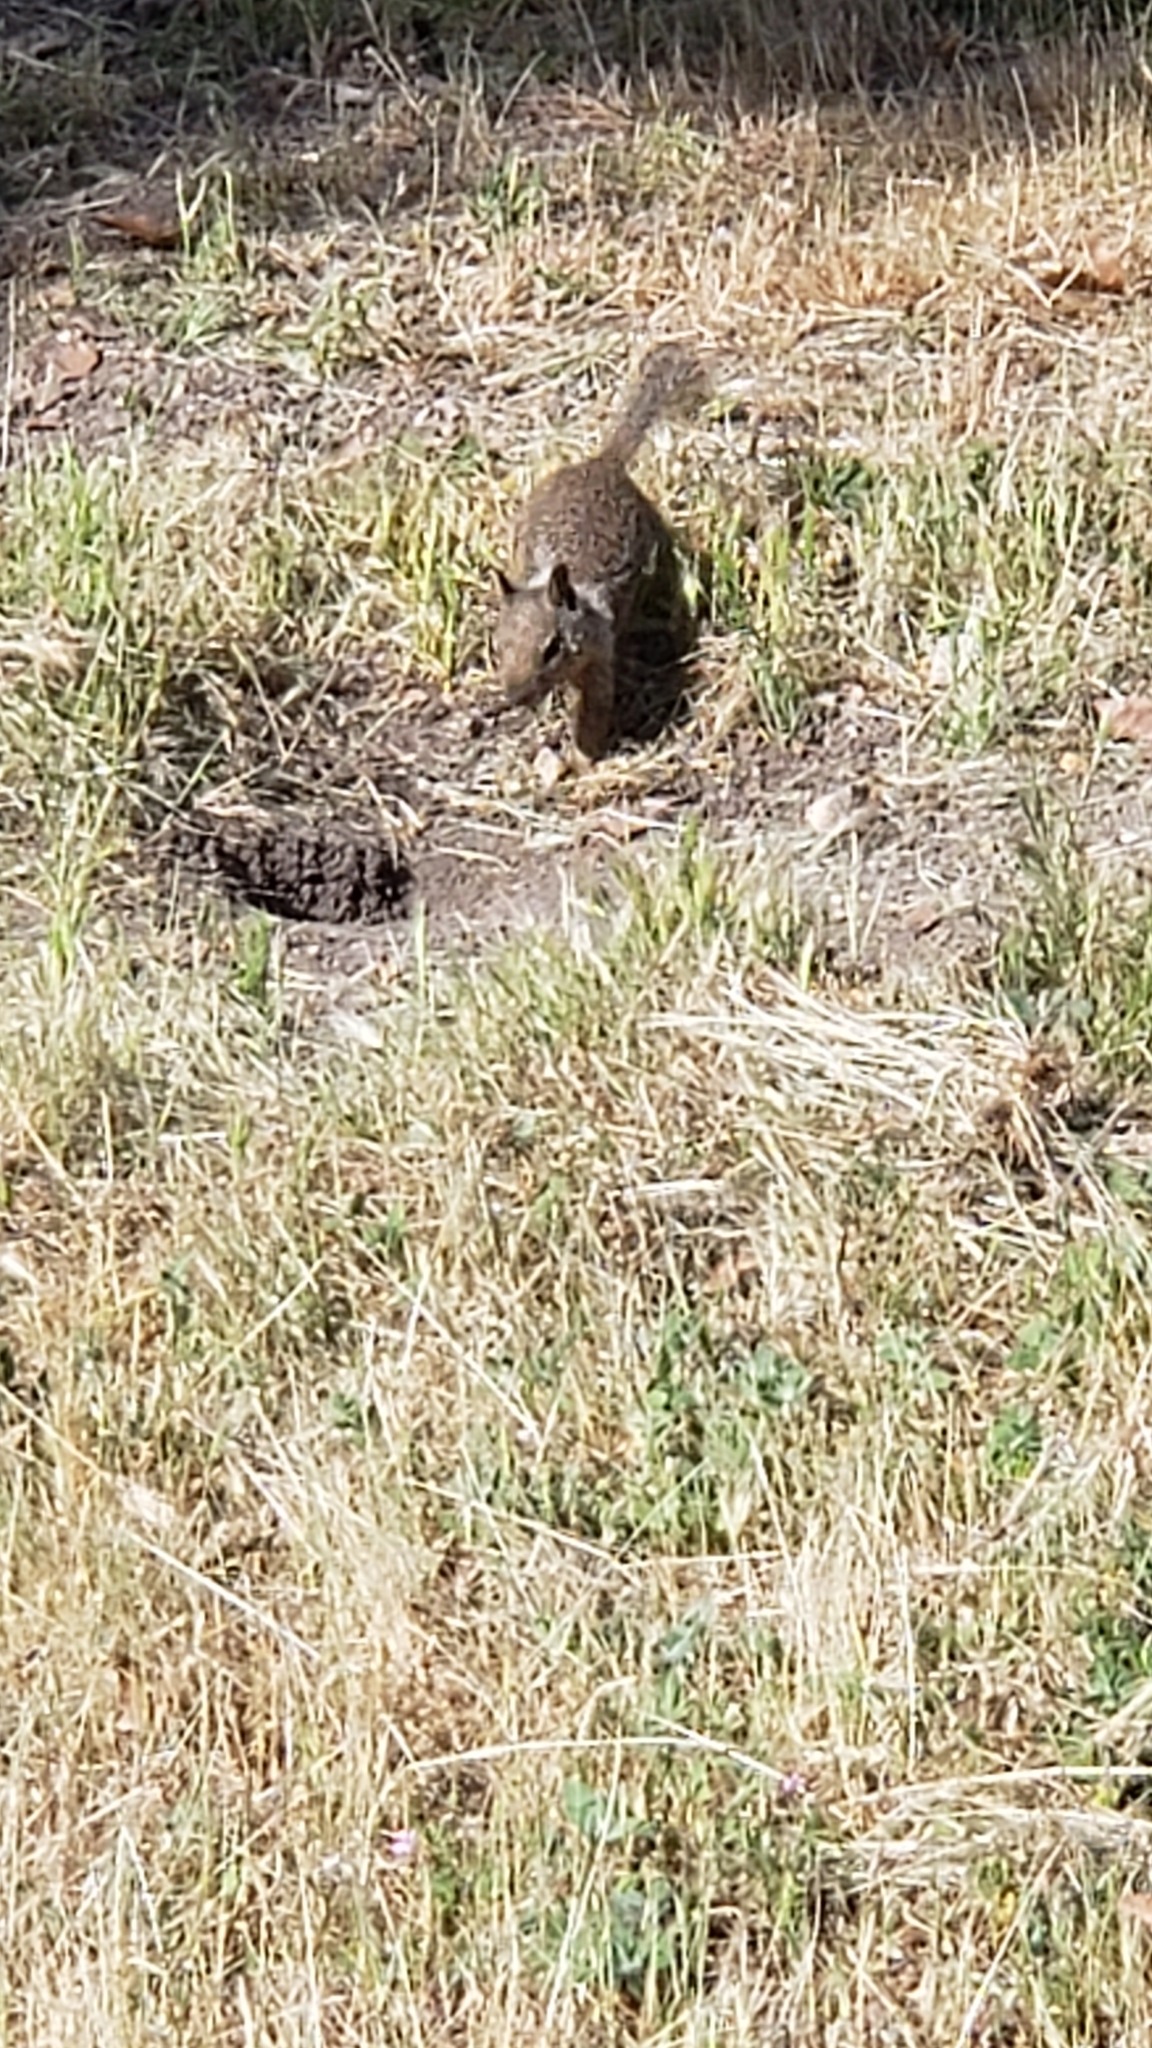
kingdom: Animalia
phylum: Chordata
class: Mammalia
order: Rodentia
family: Sciuridae
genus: Otospermophilus
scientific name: Otospermophilus beecheyi
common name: California ground squirrel
